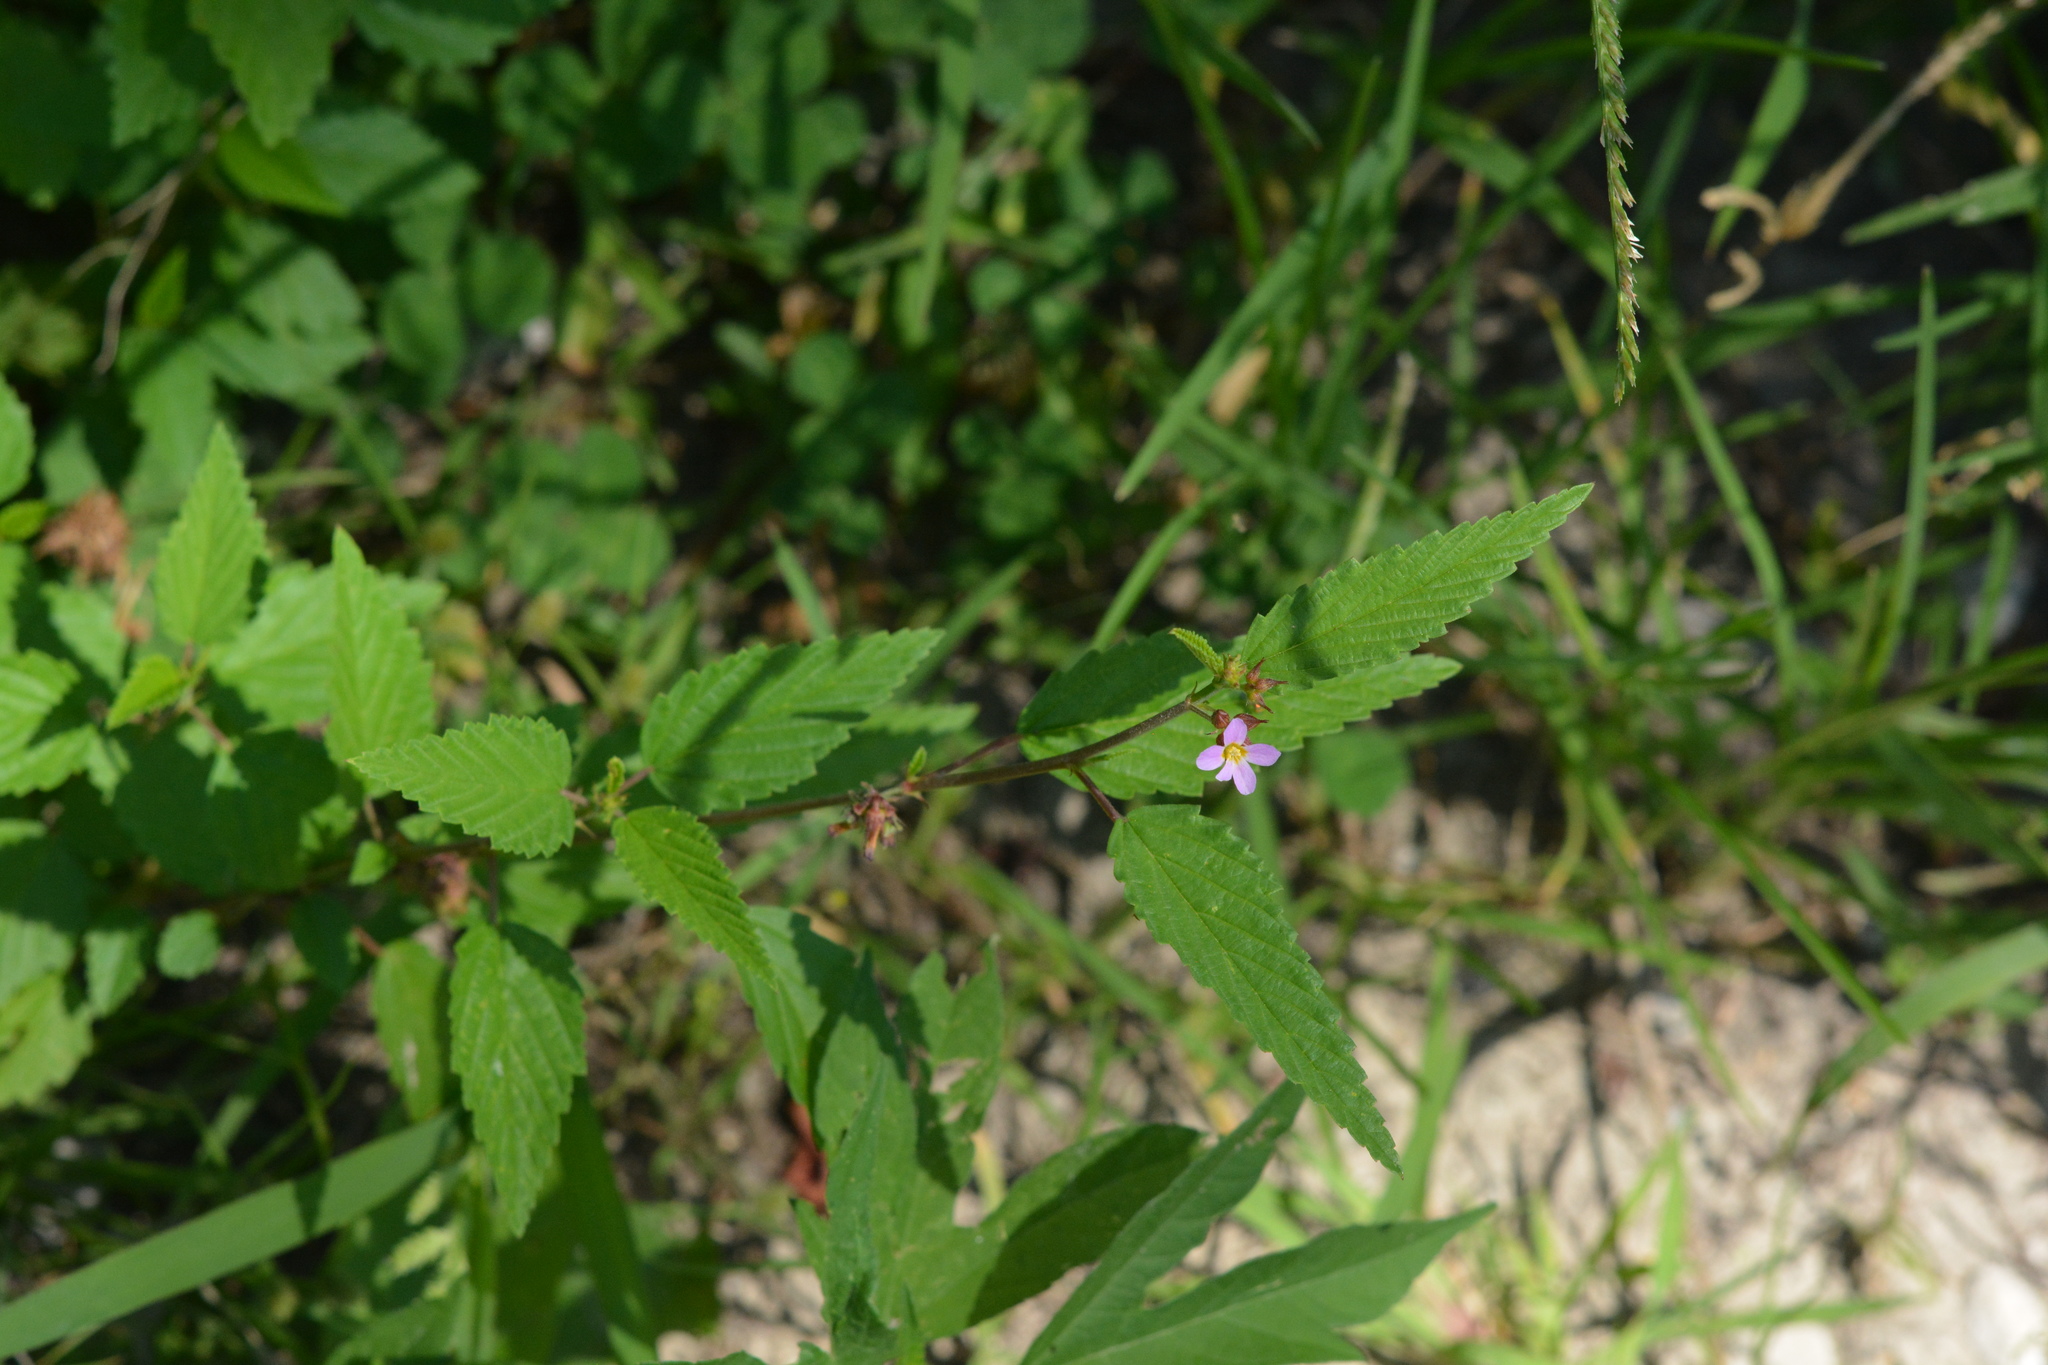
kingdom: Plantae
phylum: Tracheophyta
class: Magnoliopsida
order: Malvales
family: Malvaceae
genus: Melochia
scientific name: Melochia pyramidata
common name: Pyramidflower
